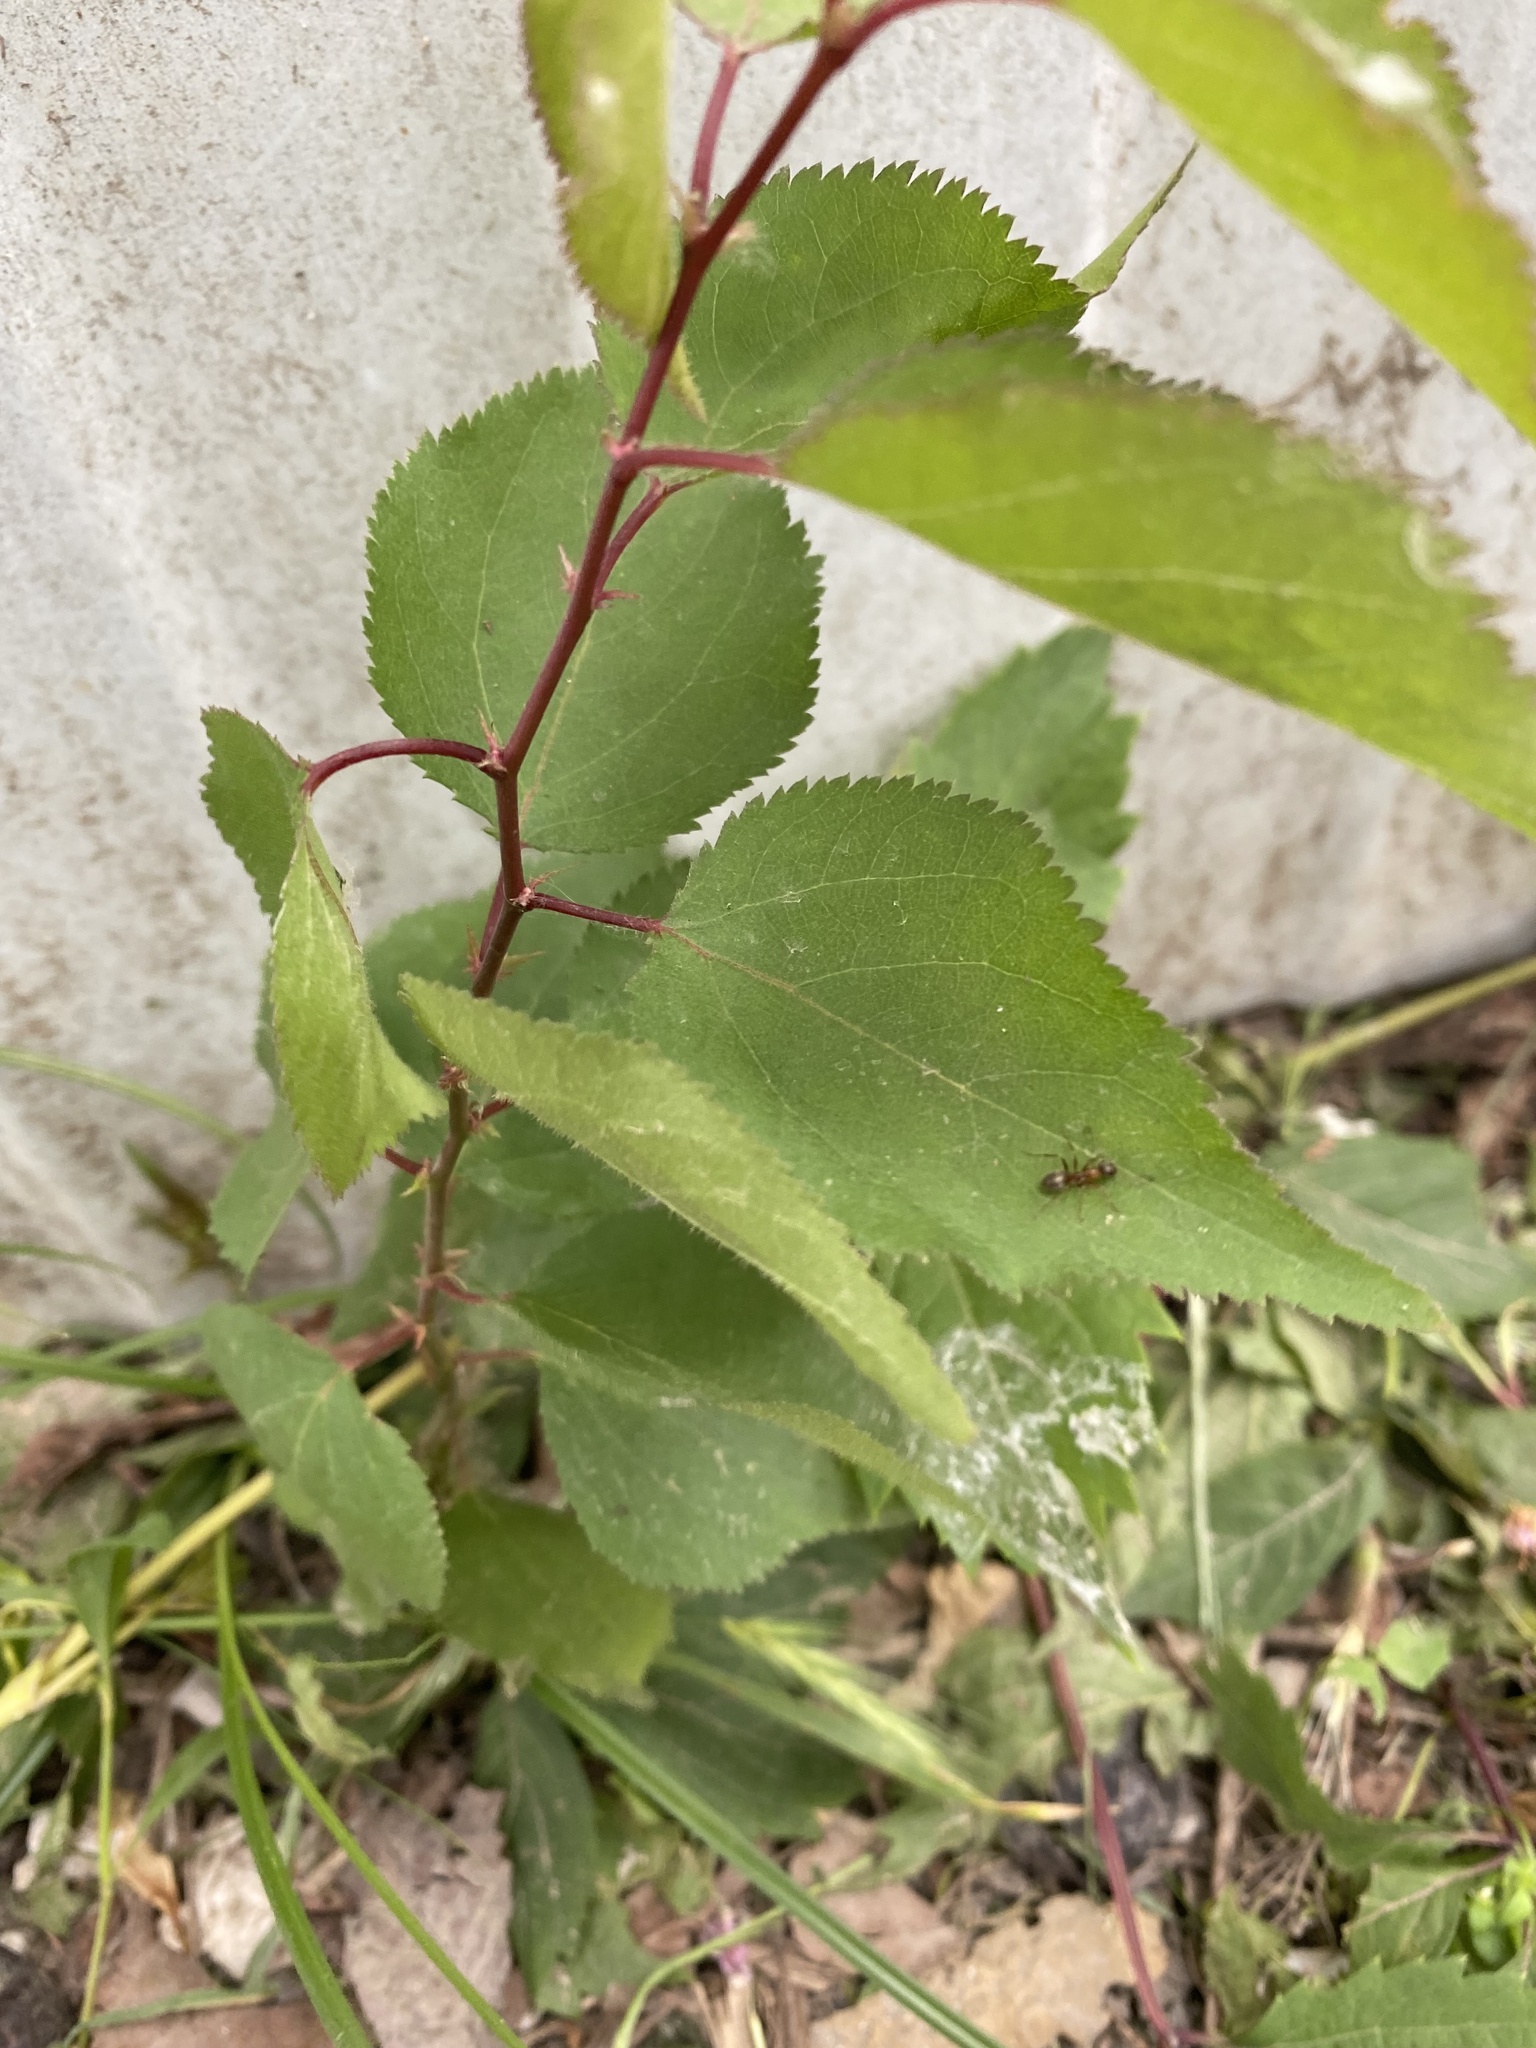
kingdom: Plantae
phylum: Tracheophyta
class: Magnoliopsida
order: Rosales
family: Rosaceae
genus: Prunus
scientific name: Prunus armeniaca
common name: Apricot
